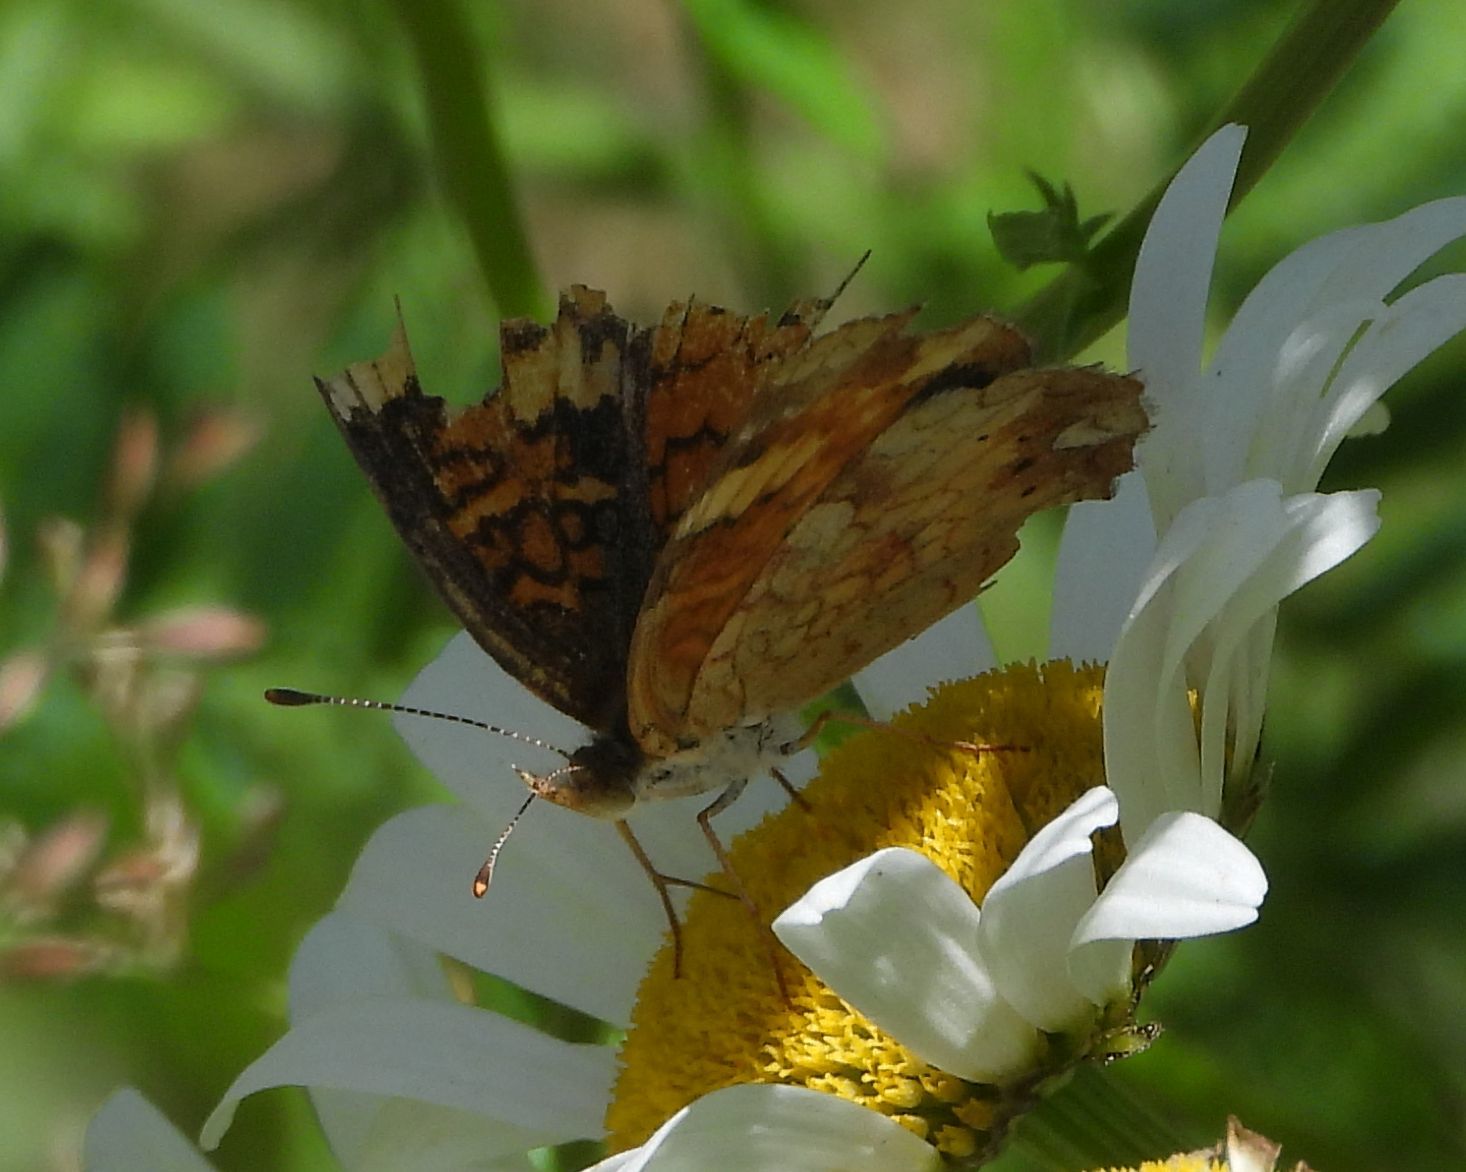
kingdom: Animalia
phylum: Arthropoda
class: Insecta
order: Lepidoptera
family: Nymphalidae
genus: Phyciodes
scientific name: Phyciodes tharos
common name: Pearl crescent
